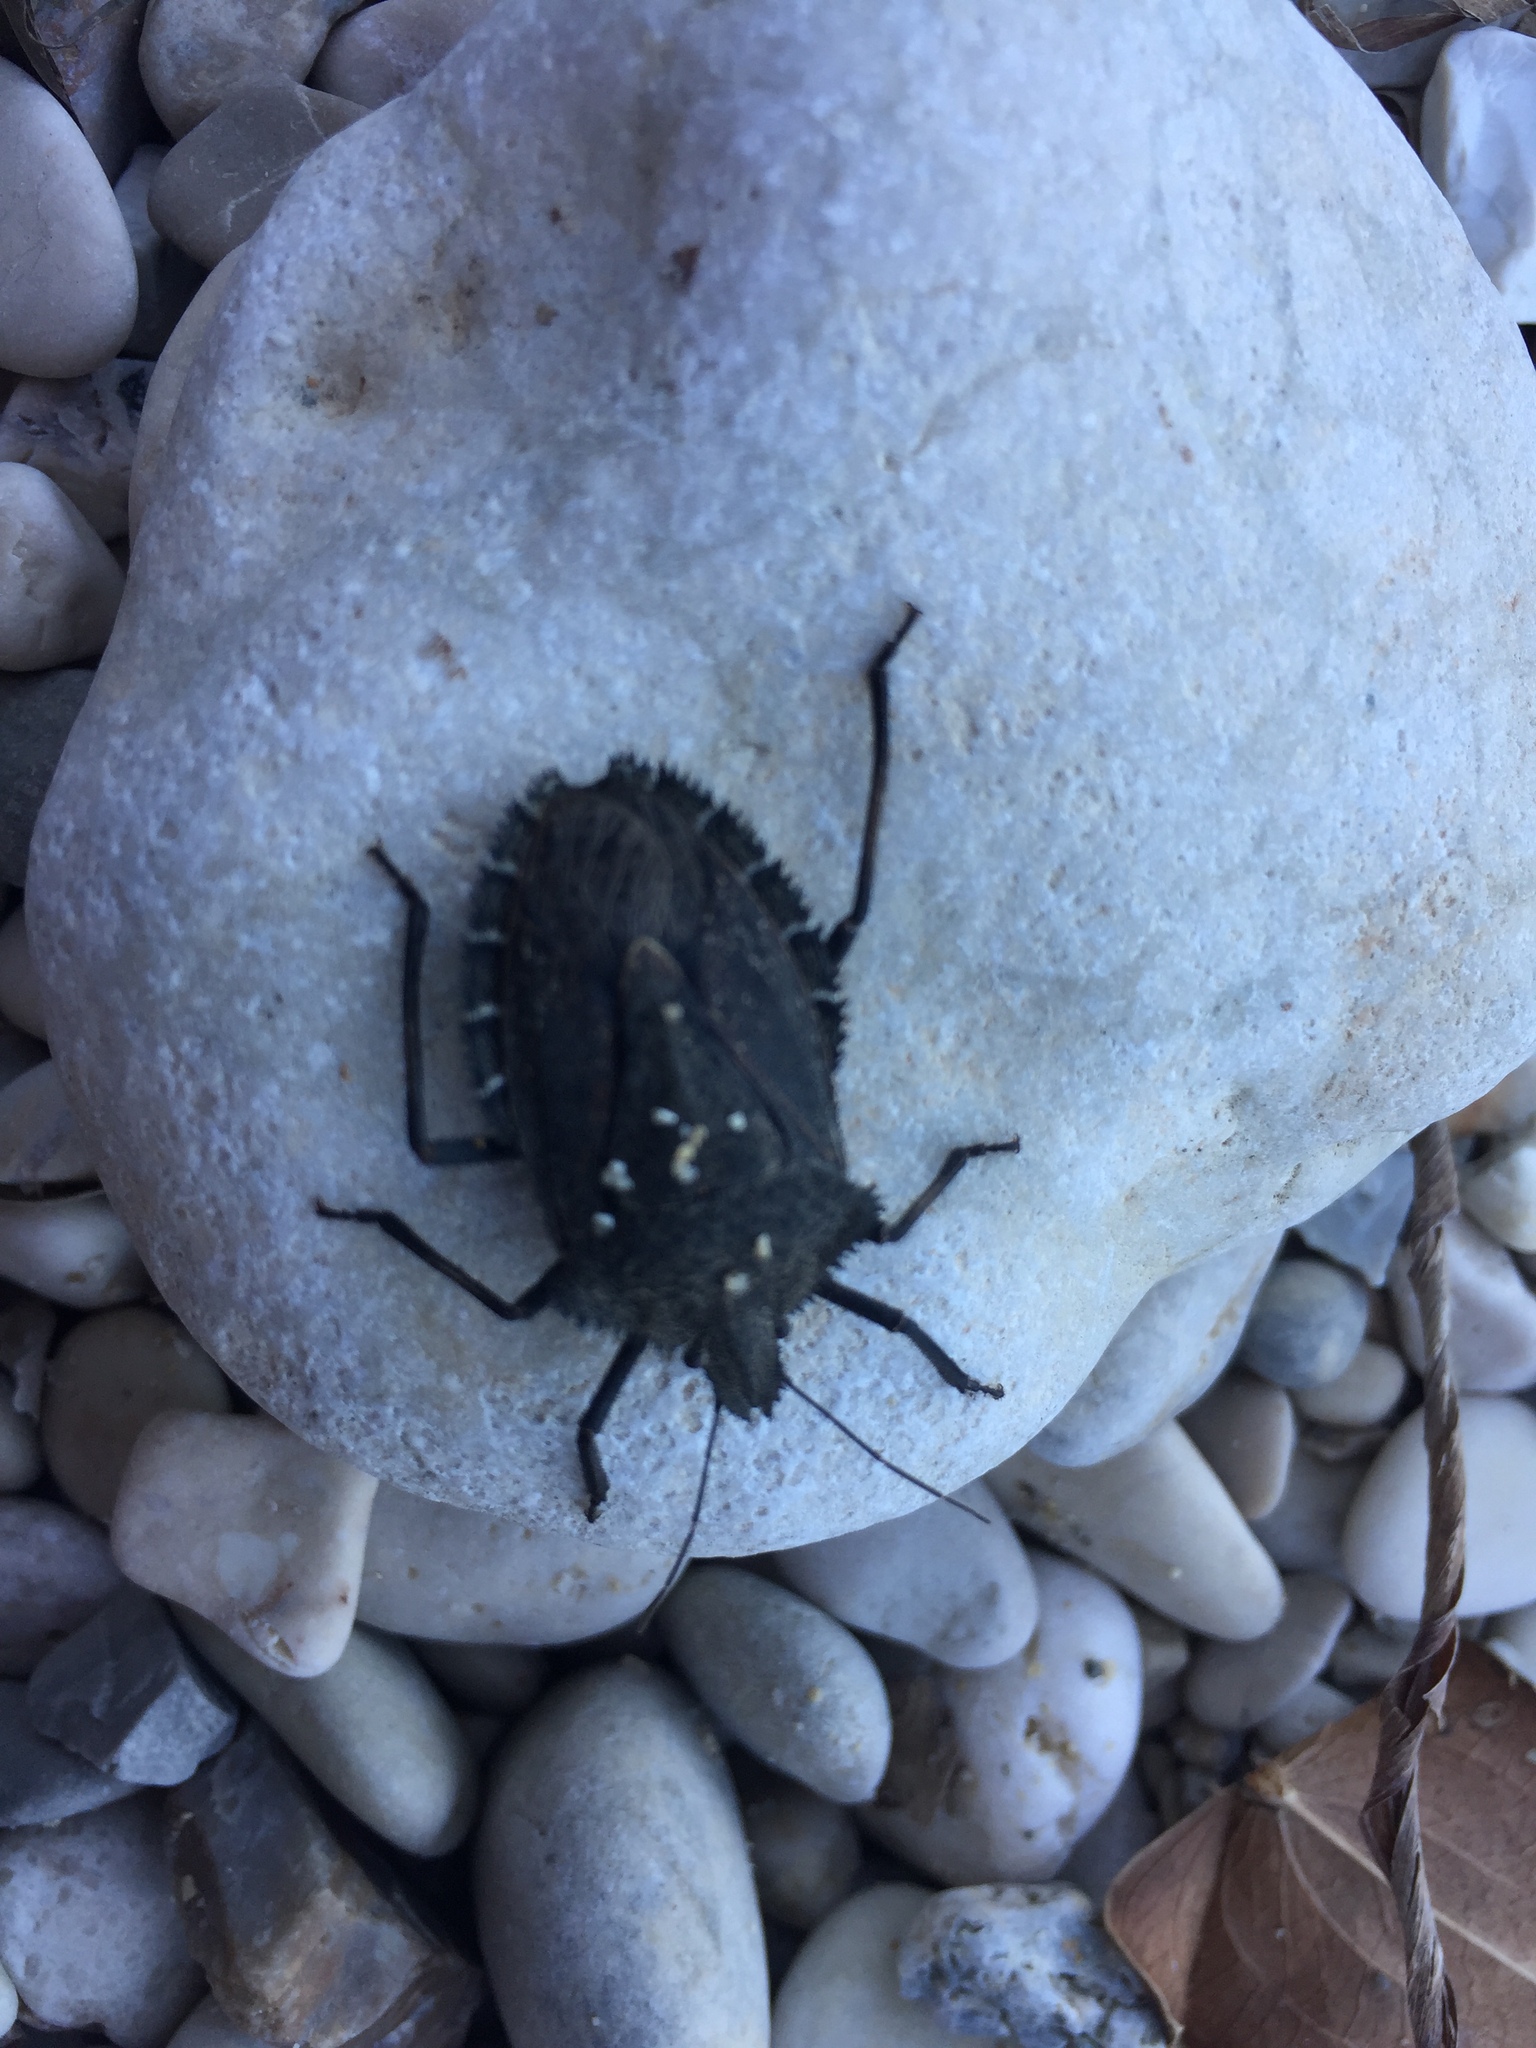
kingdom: Animalia
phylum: Arthropoda
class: Insecta
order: Hemiptera
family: Pentatomidae
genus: Mustha
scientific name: Mustha spinosula
